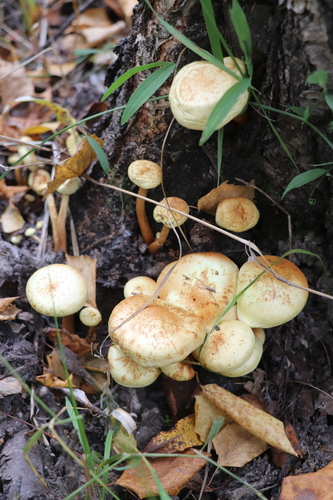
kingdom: Fungi
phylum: Basidiomycota
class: Agaricomycetes
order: Agaricales
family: Hymenogastraceae
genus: Flammula
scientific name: Flammula alnicola
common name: Alder scalycap
